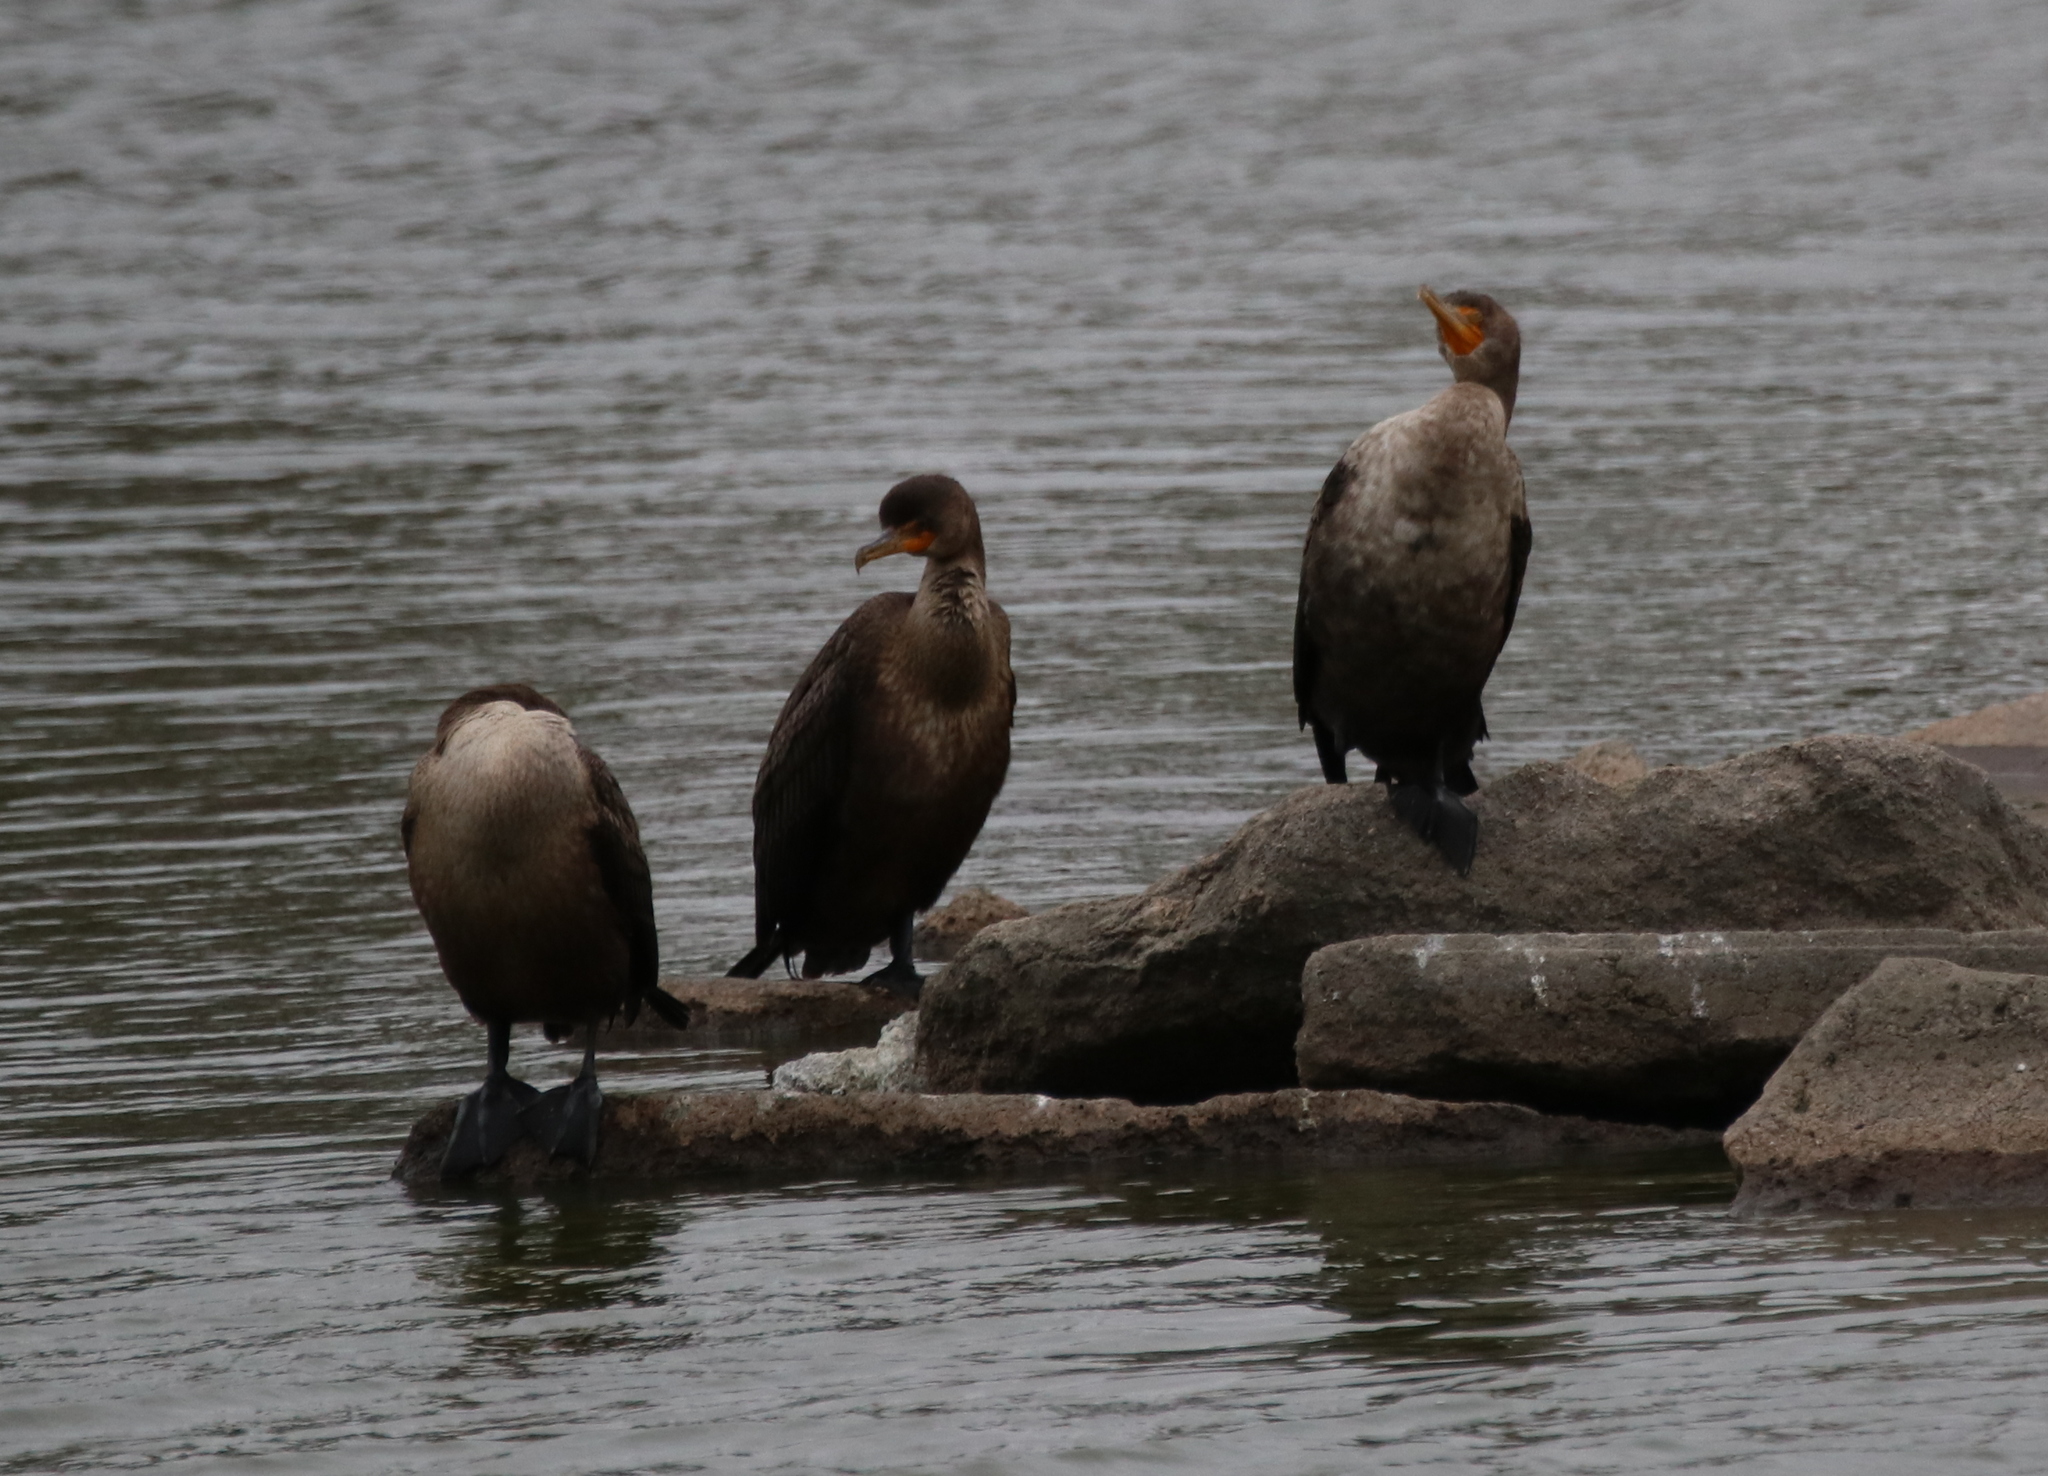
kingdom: Animalia
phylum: Chordata
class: Aves
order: Suliformes
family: Phalacrocoracidae
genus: Phalacrocorax
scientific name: Phalacrocorax auritus
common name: Double-crested cormorant
